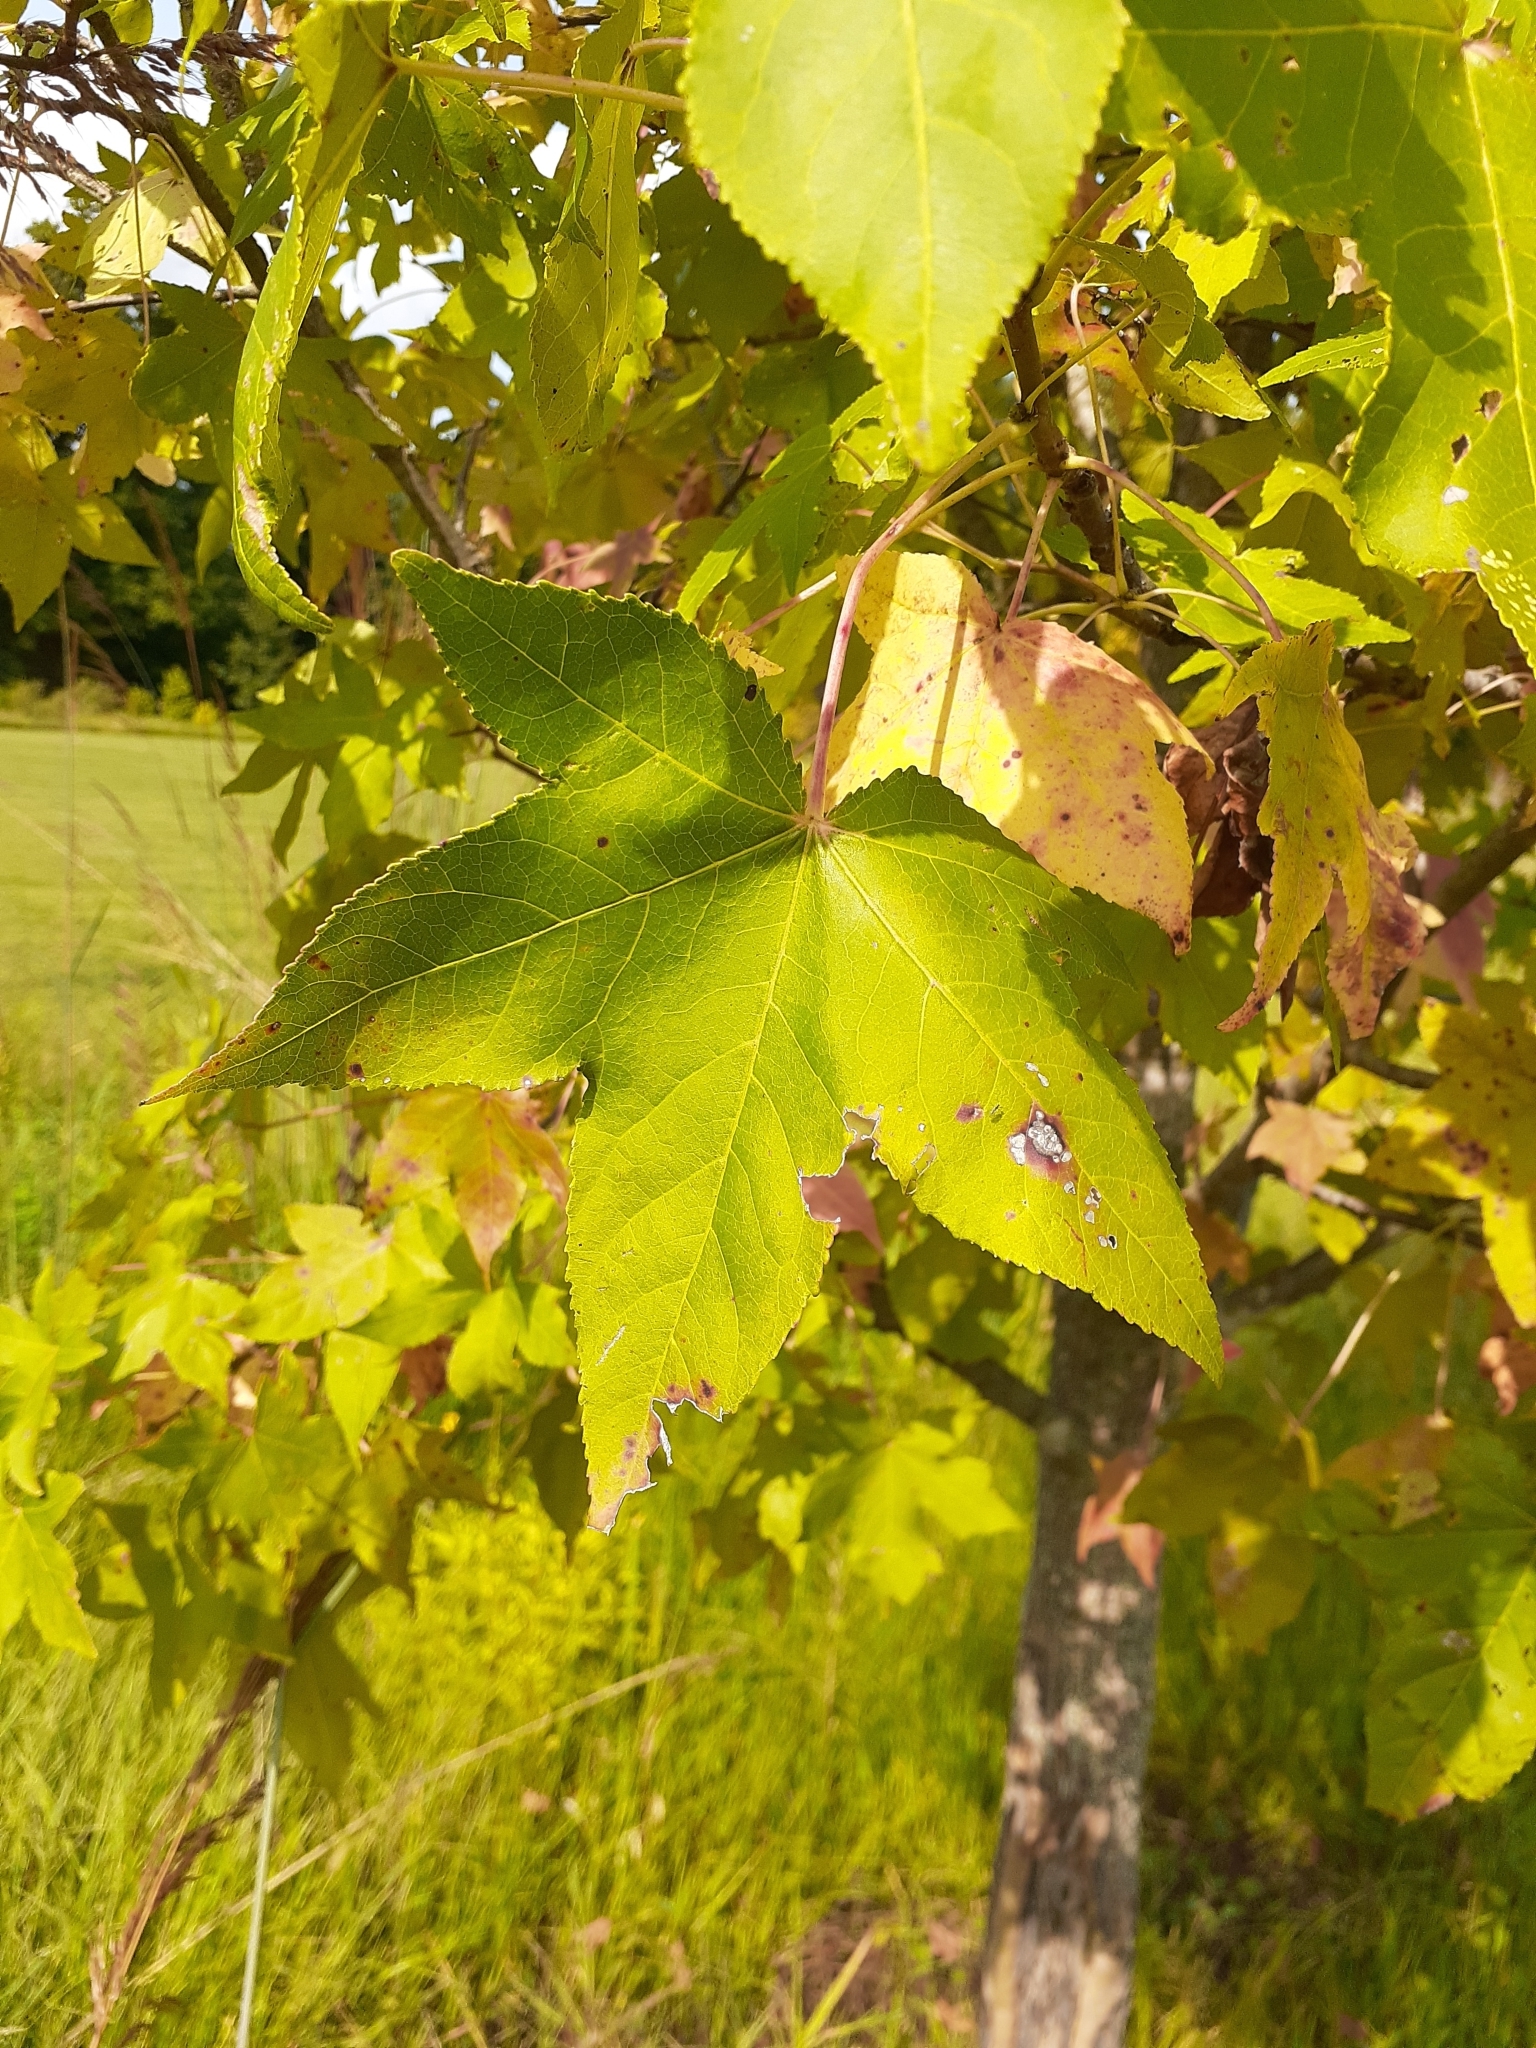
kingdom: Plantae
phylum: Tracheophyta
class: Magnoliopsida
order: Saxifragales
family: Altingiaceae
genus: Liquidambar
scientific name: Liquidambar styraciflua
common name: Sweet gum
